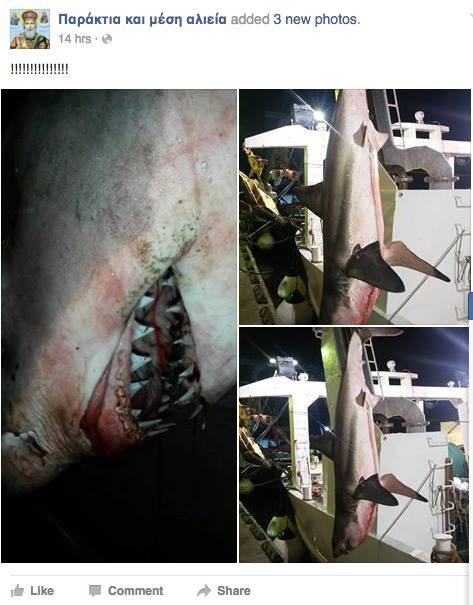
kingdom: Animalia
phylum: Chordata
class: Elasmobranchii
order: Lamniformes
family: Lamnidae
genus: Carcharodon
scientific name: Carcharodon carcharias
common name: Great white shark
